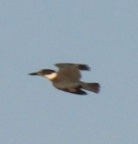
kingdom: Animalia
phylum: Chordata
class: Aves
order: Coraciiformes
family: Alcedinidae
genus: Megaceryle
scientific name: Megaceryle alcyon
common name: Belted kingfisher
